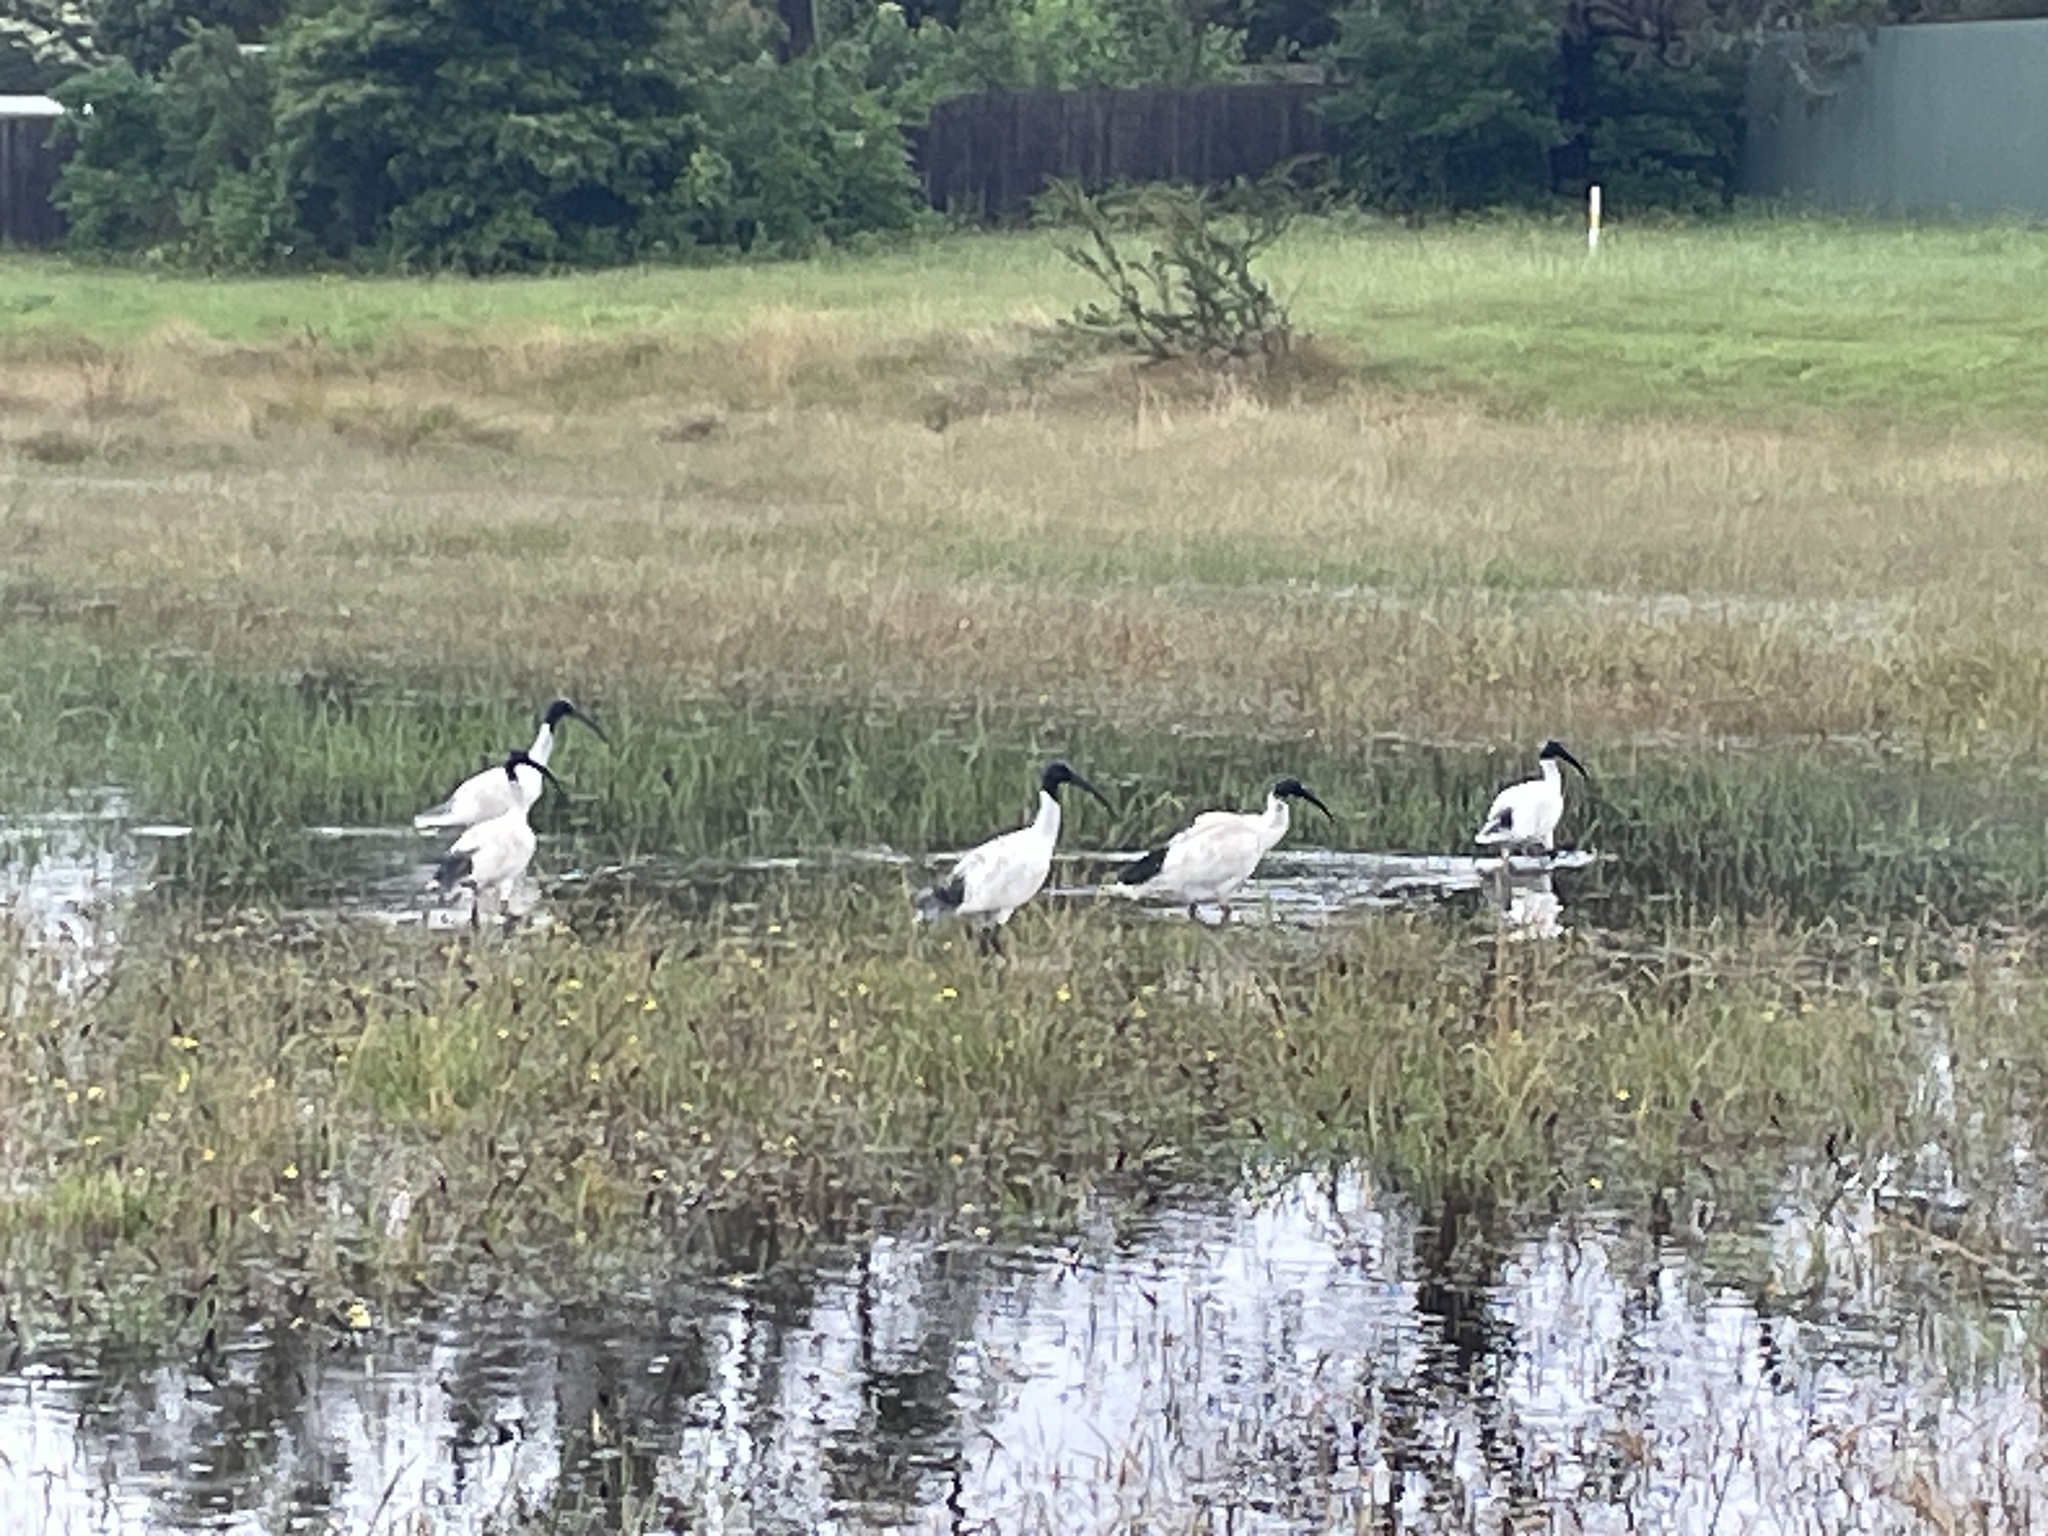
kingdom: Animalia
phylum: Chordata
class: Aves
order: Pelecaniformes
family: Threskiornithidae
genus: Threskiornis
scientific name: Threskiornis molucca
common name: Australian white ibis
